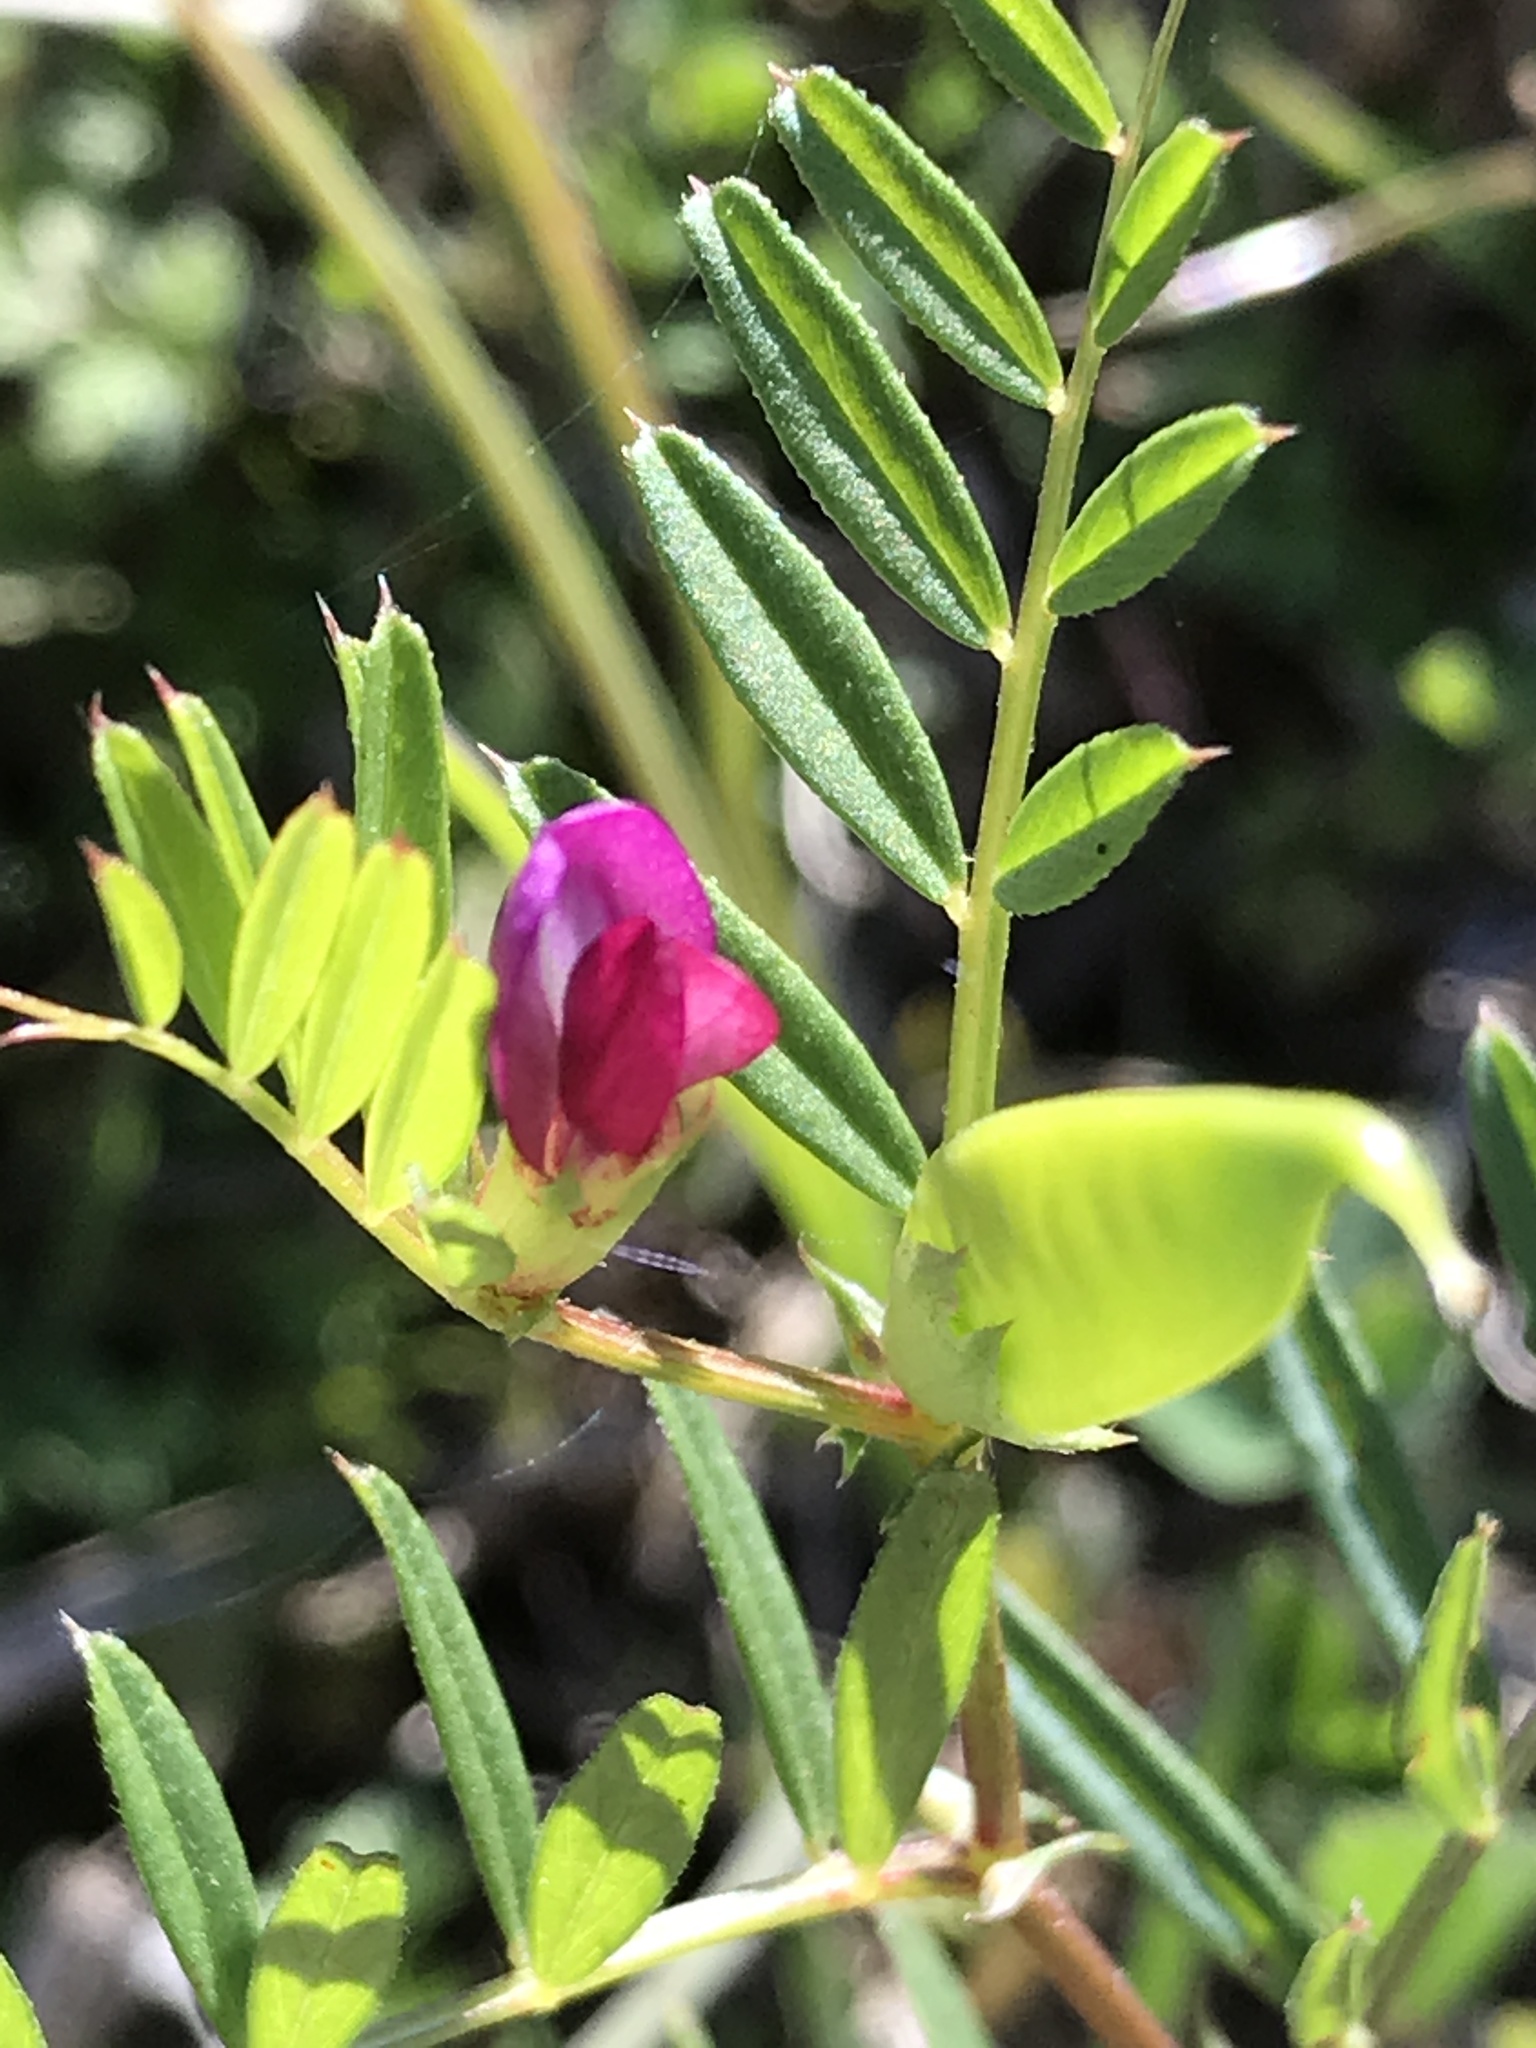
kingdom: Plantae
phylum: Tracheophyta
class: Magnoliopsida
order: Fabales
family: Fabaceae
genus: Vicia
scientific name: Vicia sativa
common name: Garden vetch
